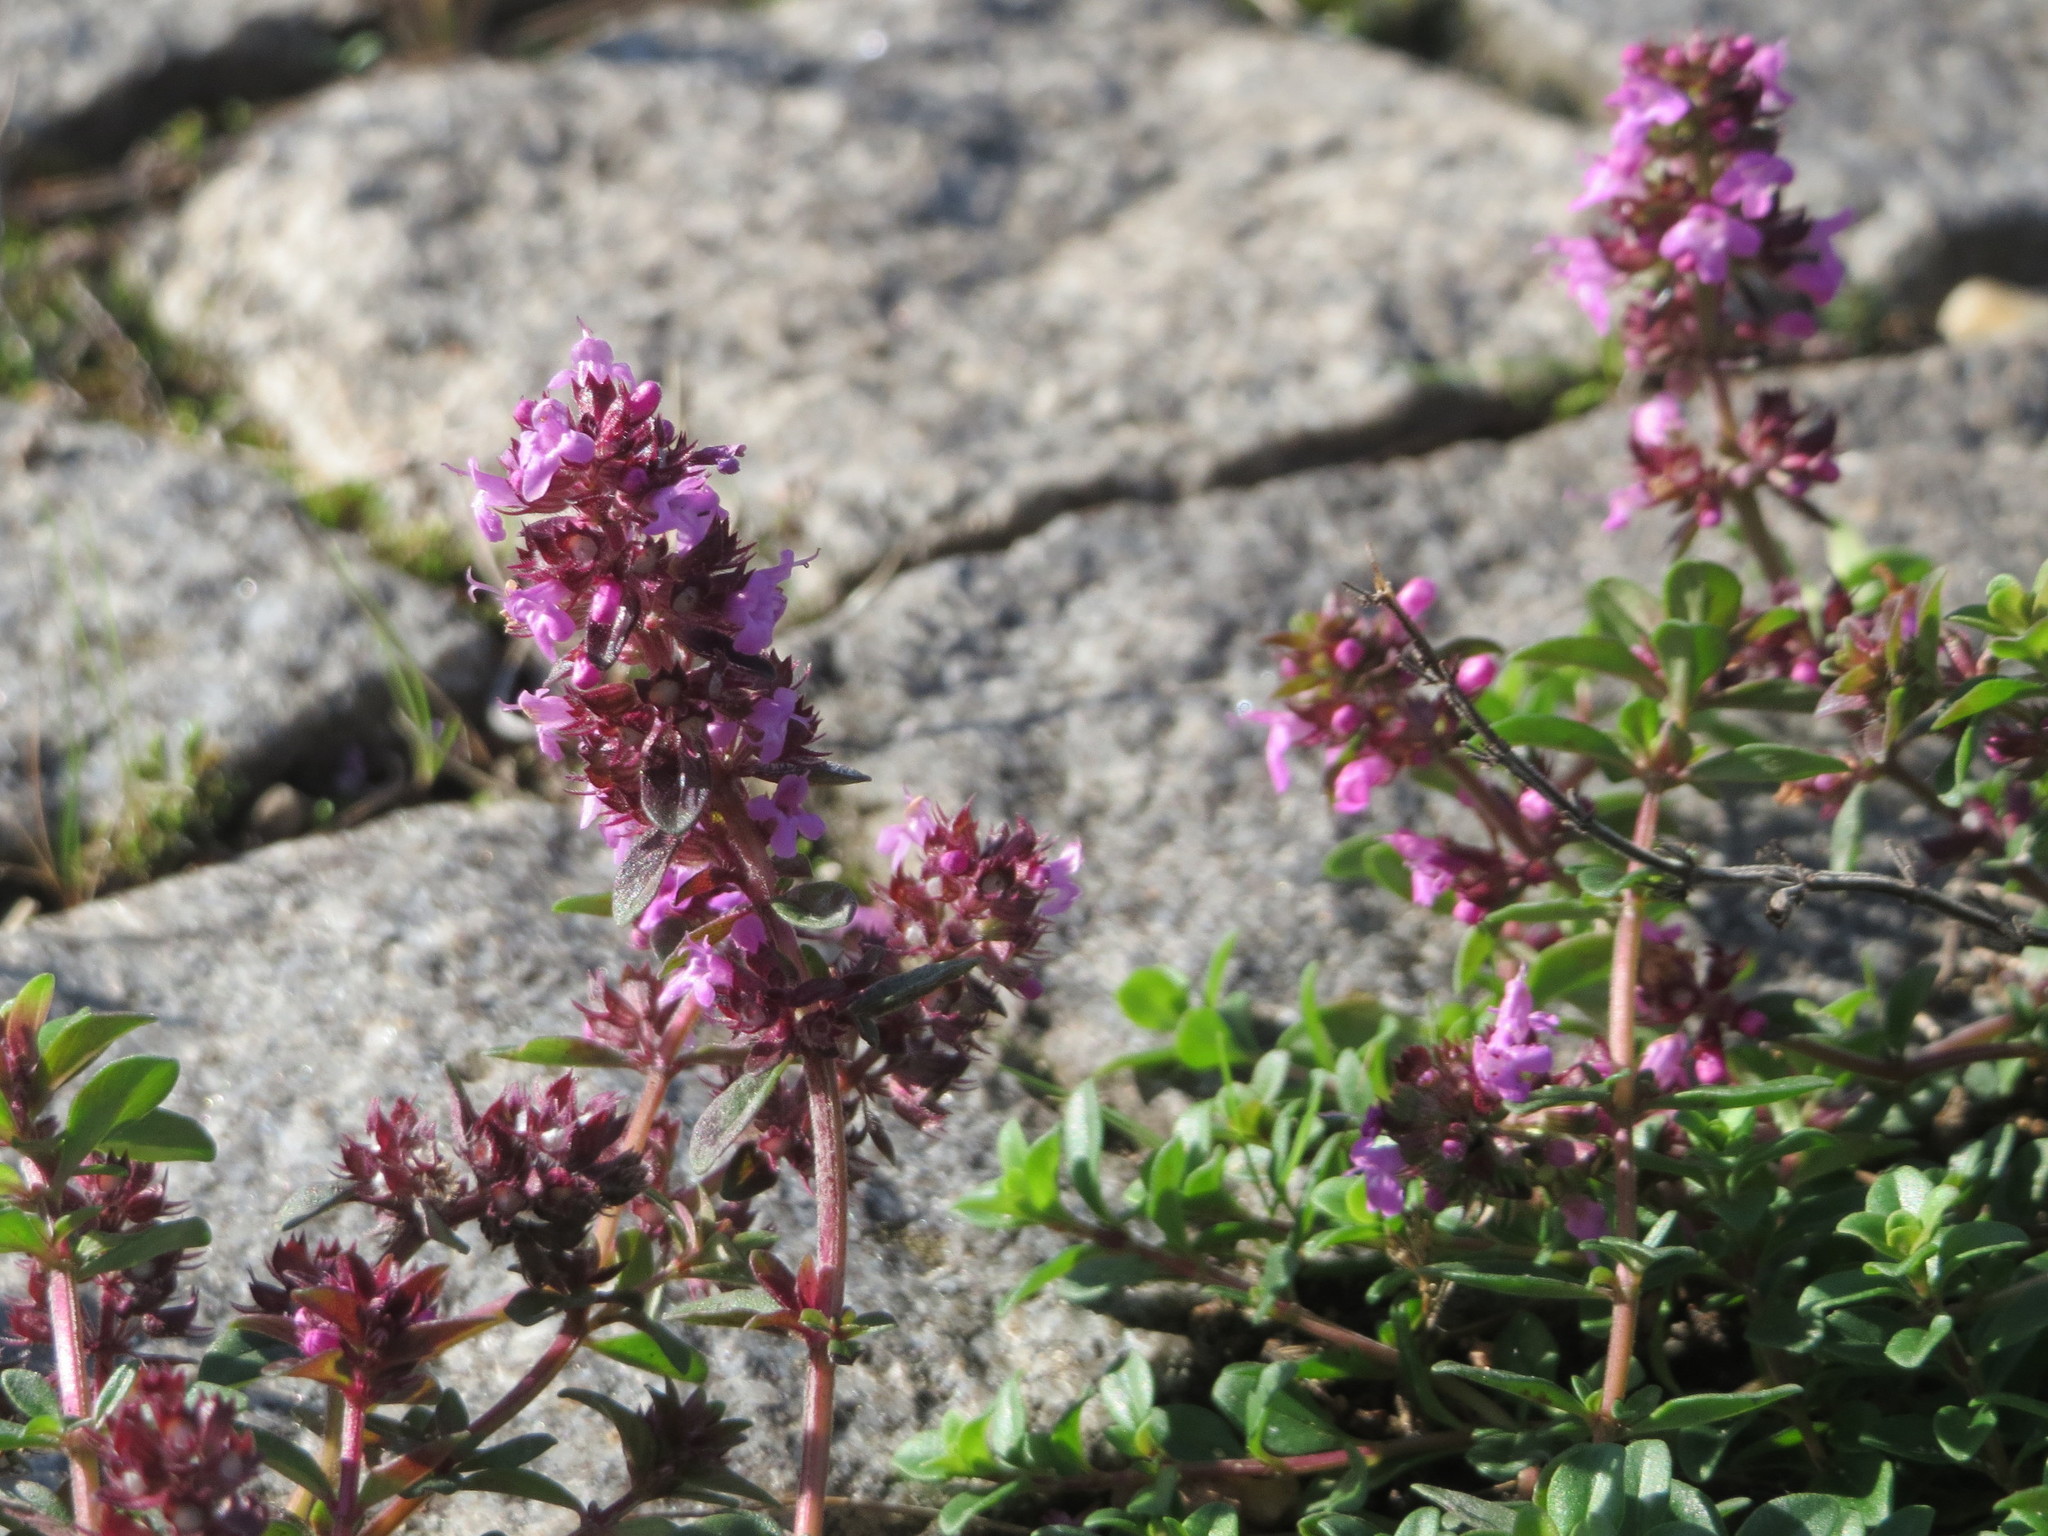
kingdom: Plantae
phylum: Tracheophyta
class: Magnoliopsida
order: Lamiales
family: Lamiaceae
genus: Thymus
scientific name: Thymus pulegioides
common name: Large thyme
